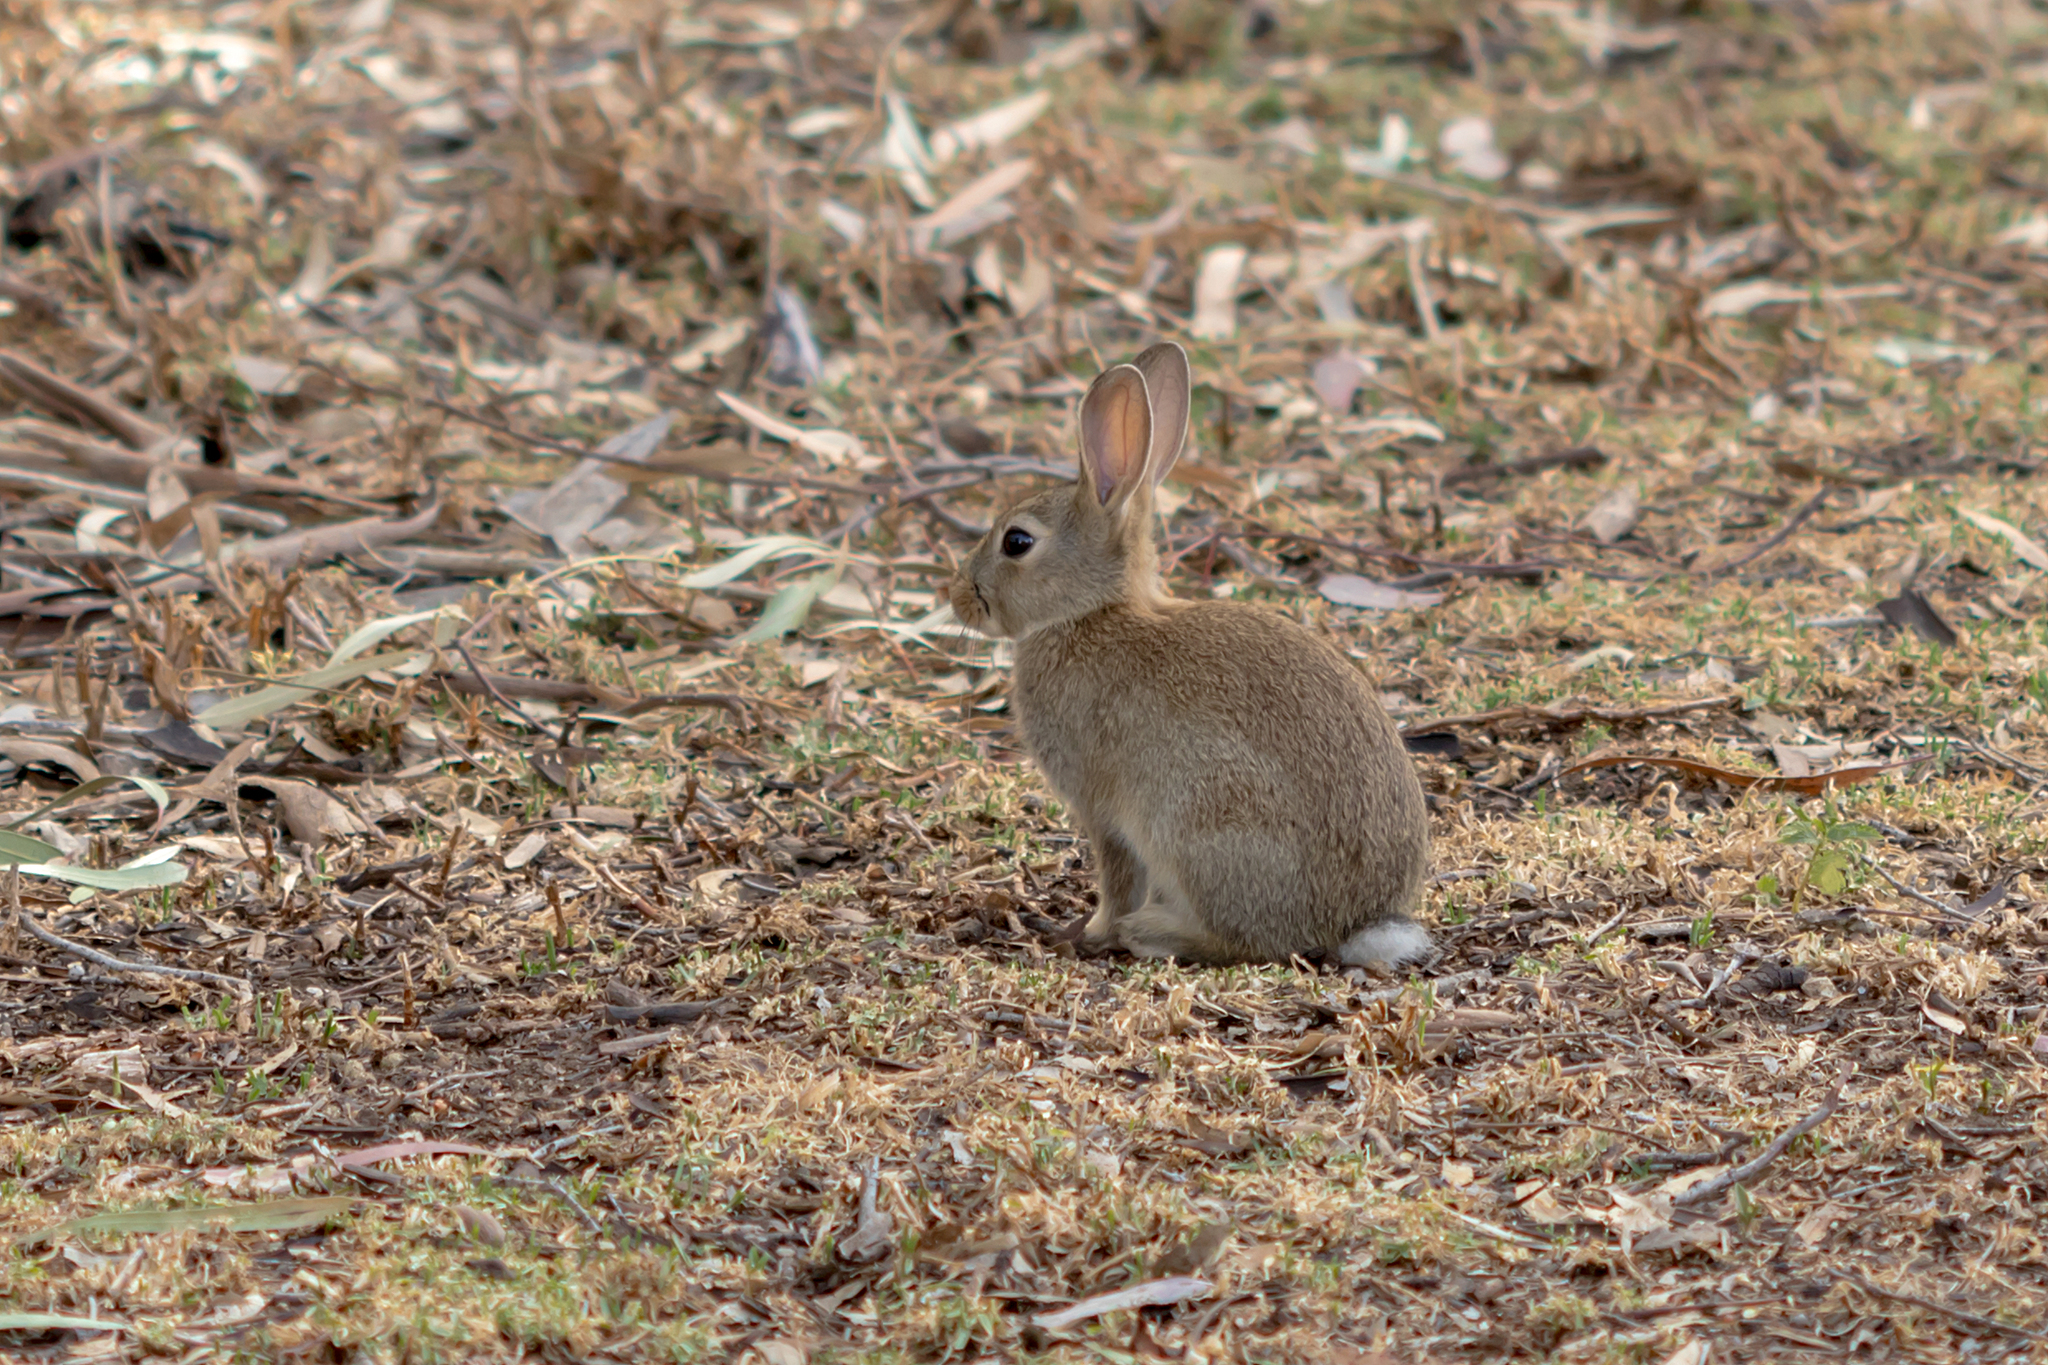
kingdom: Animalia
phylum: Chordata
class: Mammalia
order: Lagomorpha
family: Leporidae
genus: Oryctolagus
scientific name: Oryctolagus cuniculus
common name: European rabbit
